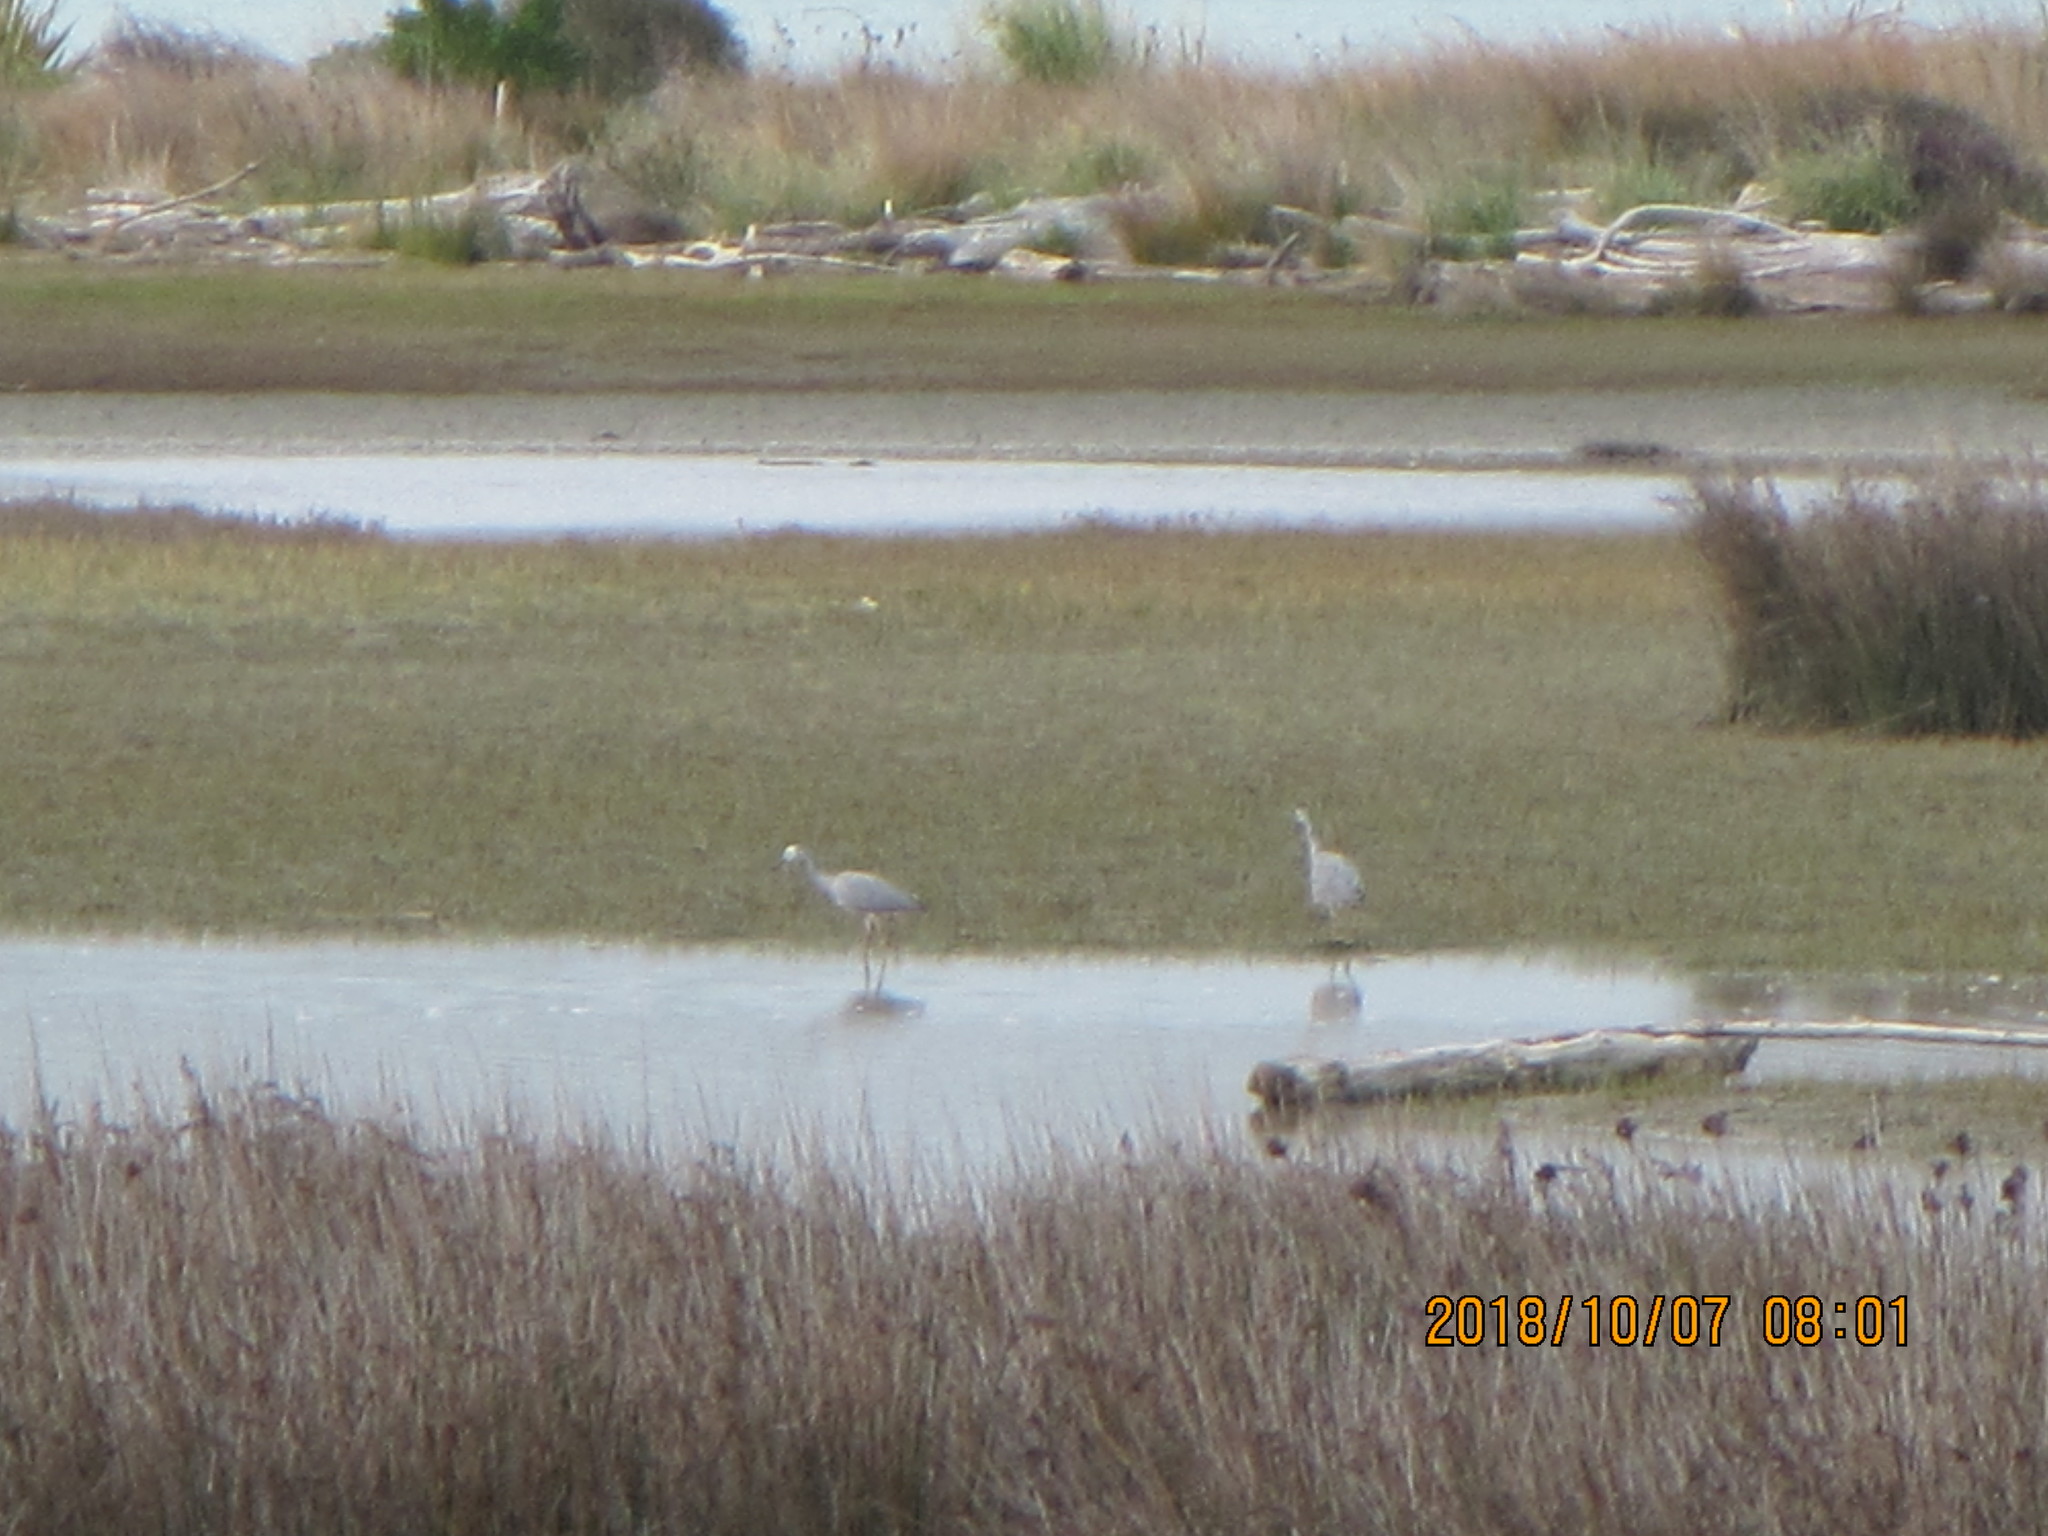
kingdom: Animalia
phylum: Chordata
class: Aves
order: Pelecaniformes
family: Ardeidae
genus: Egretta
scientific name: Egretta novaehollandiae
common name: White-faced heron
